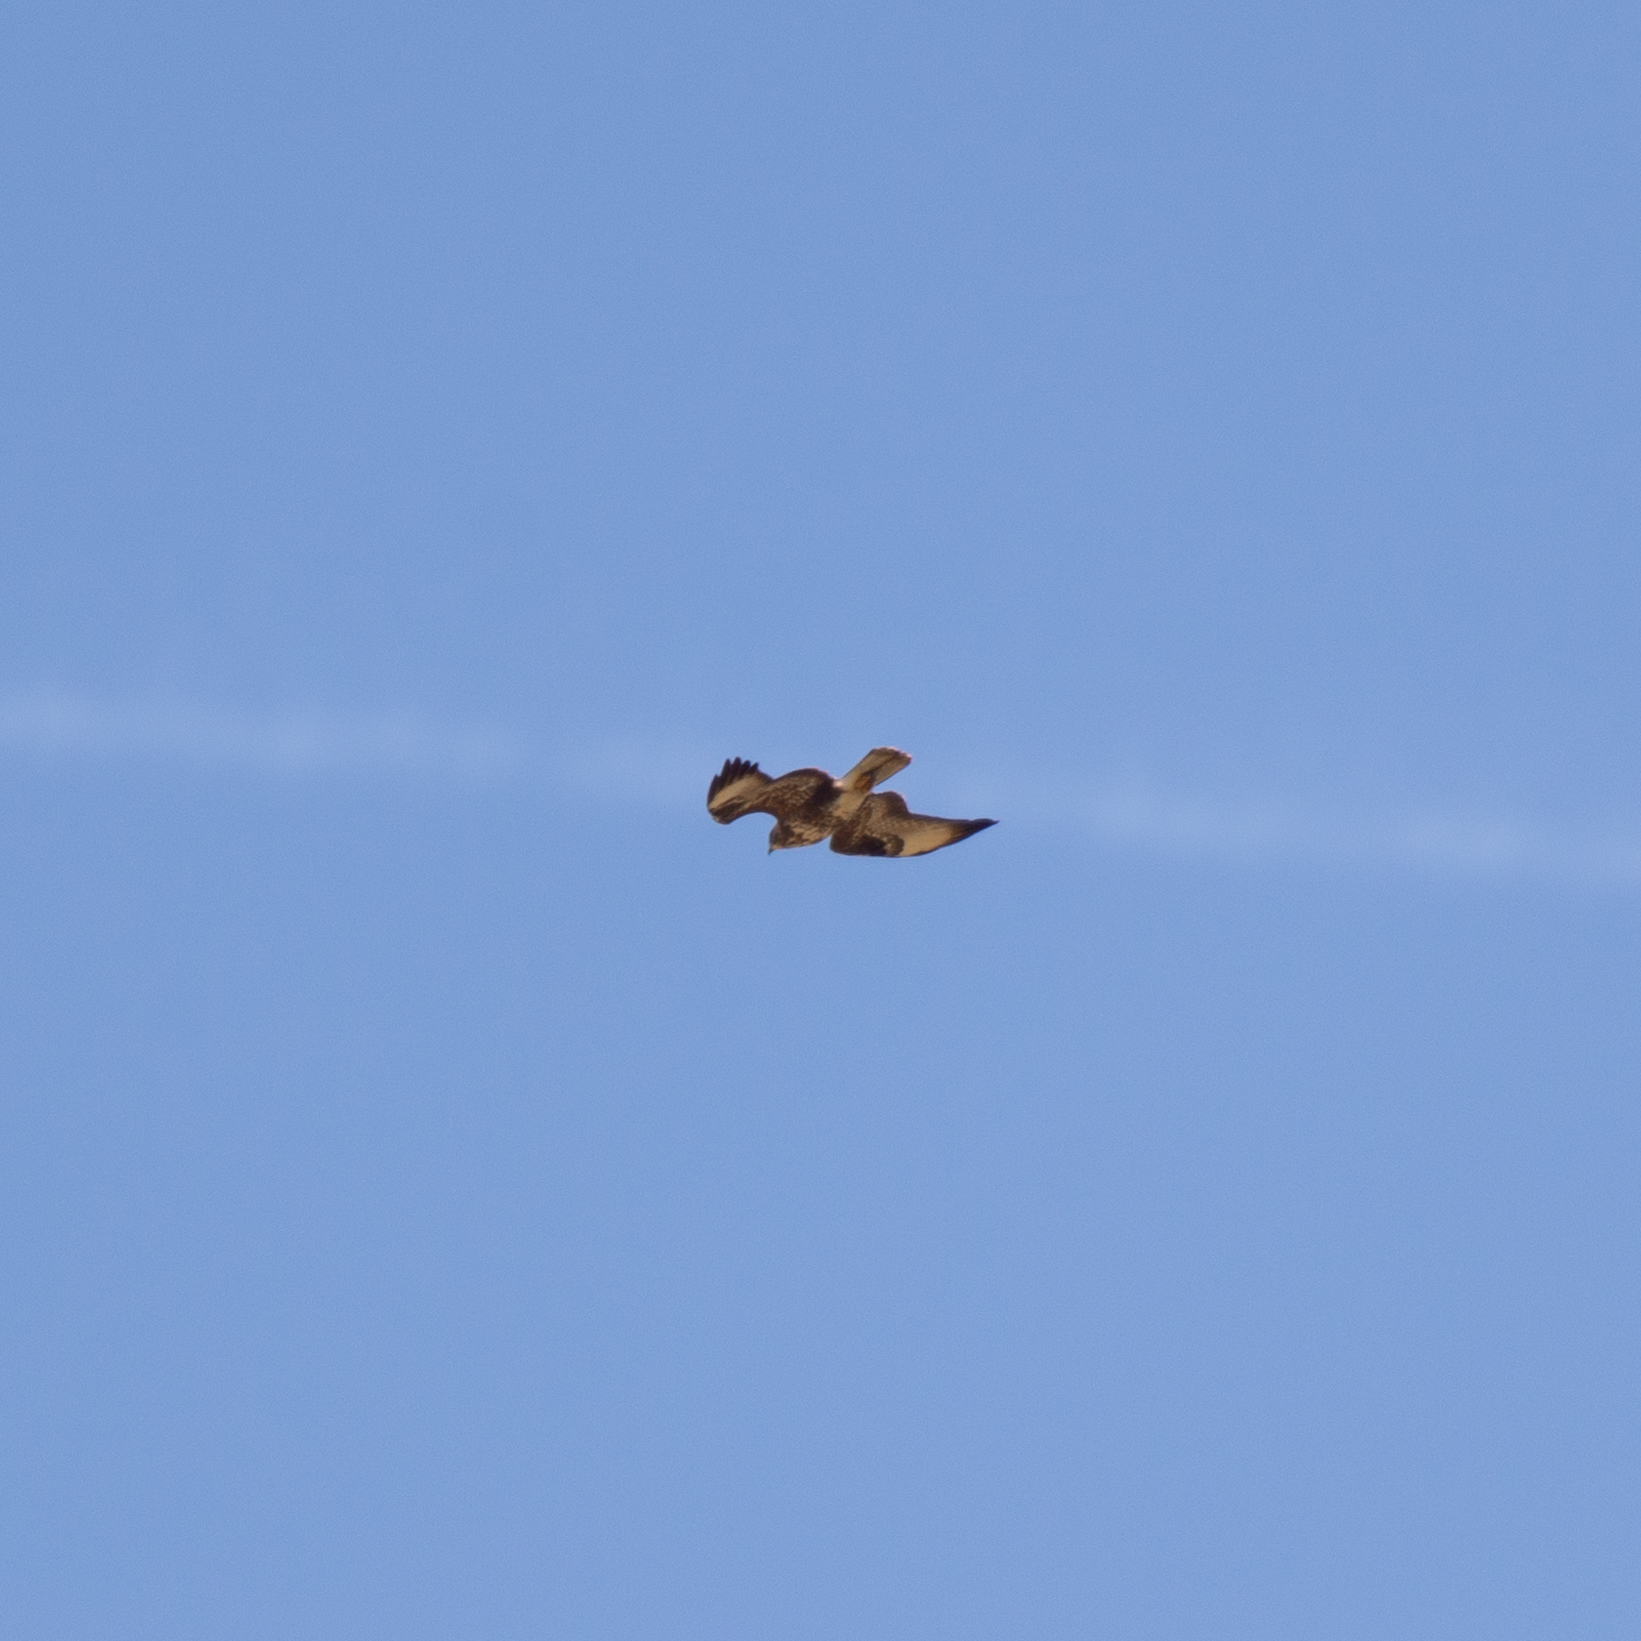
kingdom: Animalia
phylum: Chordata
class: Aves
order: Accipitriformes
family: Accipitridae
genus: Buteo
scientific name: Buteo buteo
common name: Common buzzard
